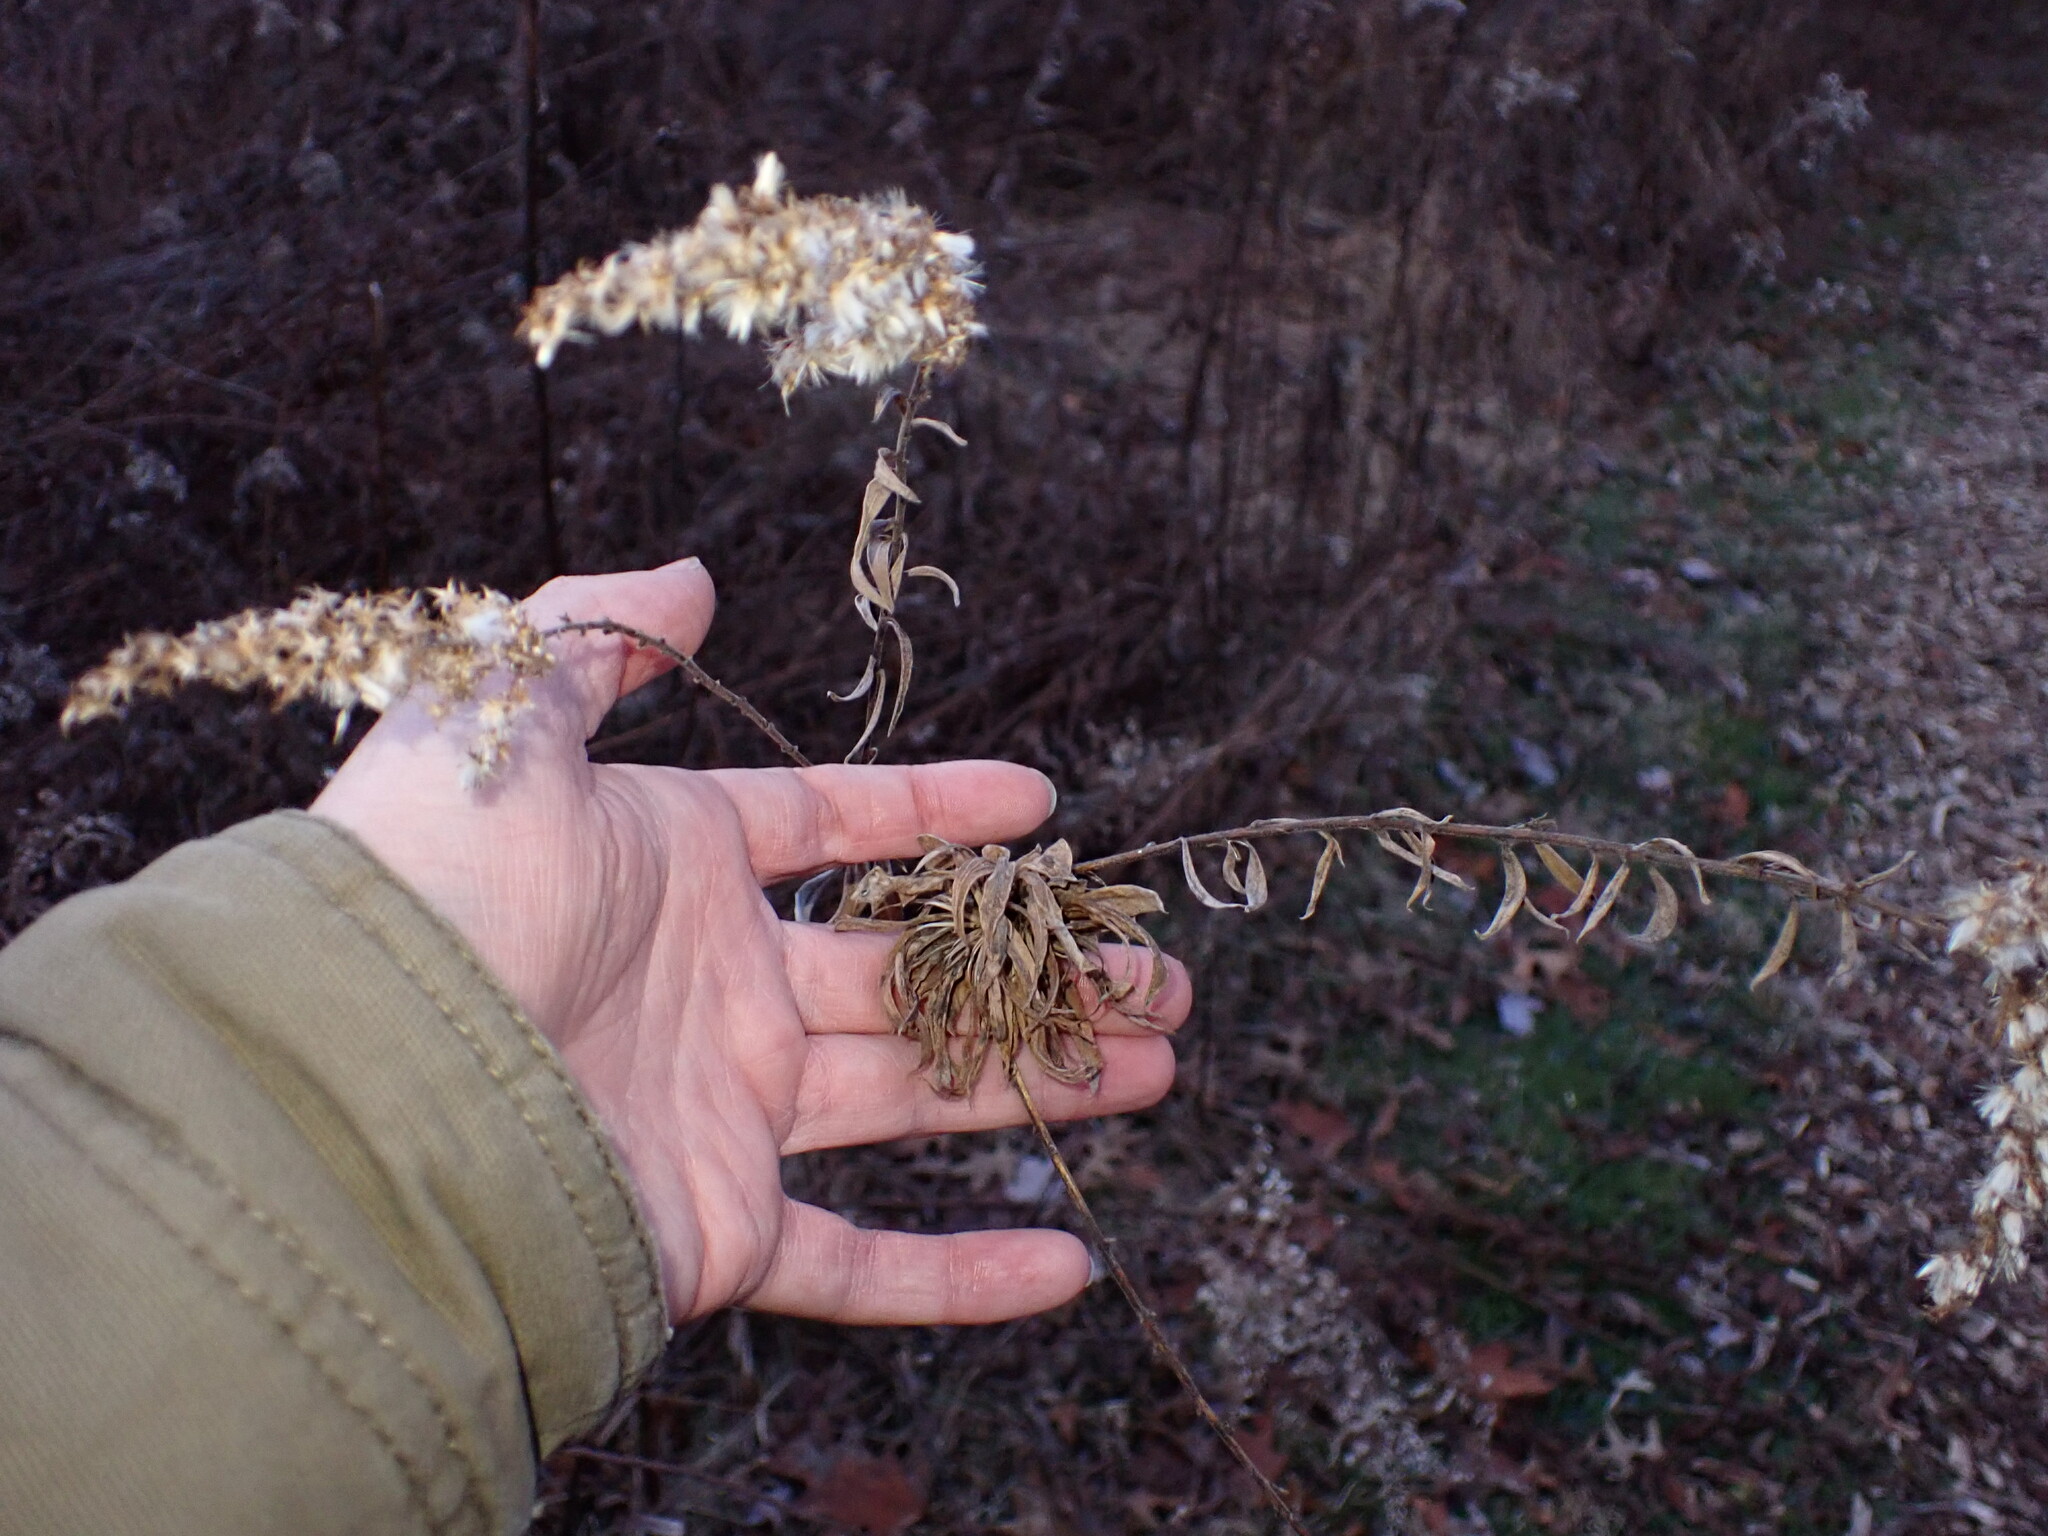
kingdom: Animalia
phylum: Arthropoda
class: Insecta
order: Diptera
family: Cecidomyiidae
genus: Rhopalomyia
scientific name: Rhopalomyia solidaginis
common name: Goldenrod bunch gall midge
